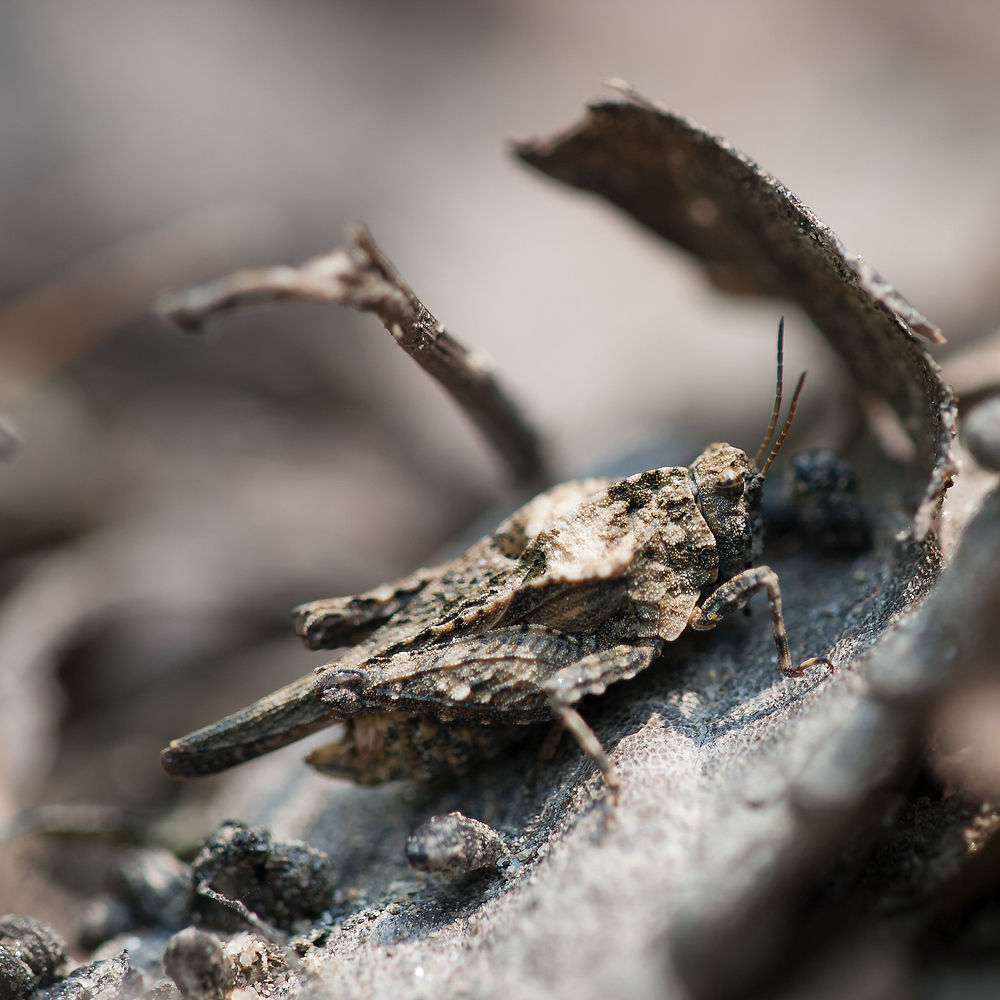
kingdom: Animalia
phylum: Arthropoda
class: Insecta
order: Orthoptera
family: Tetrigidae
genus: Tetrix
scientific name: Tetrix depressa
